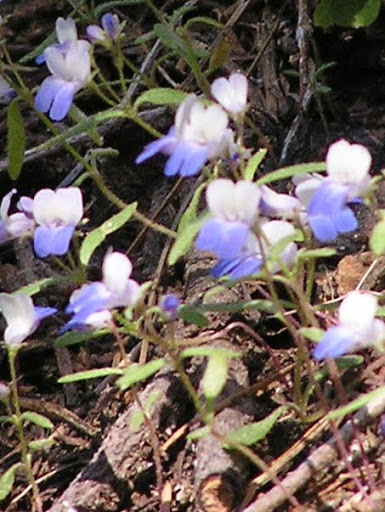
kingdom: Plantae
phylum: Tracheophyta
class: Magnoliopsida
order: Lamiales
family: Plantaginaceae
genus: Collinsia
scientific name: Collinsia torreyi
